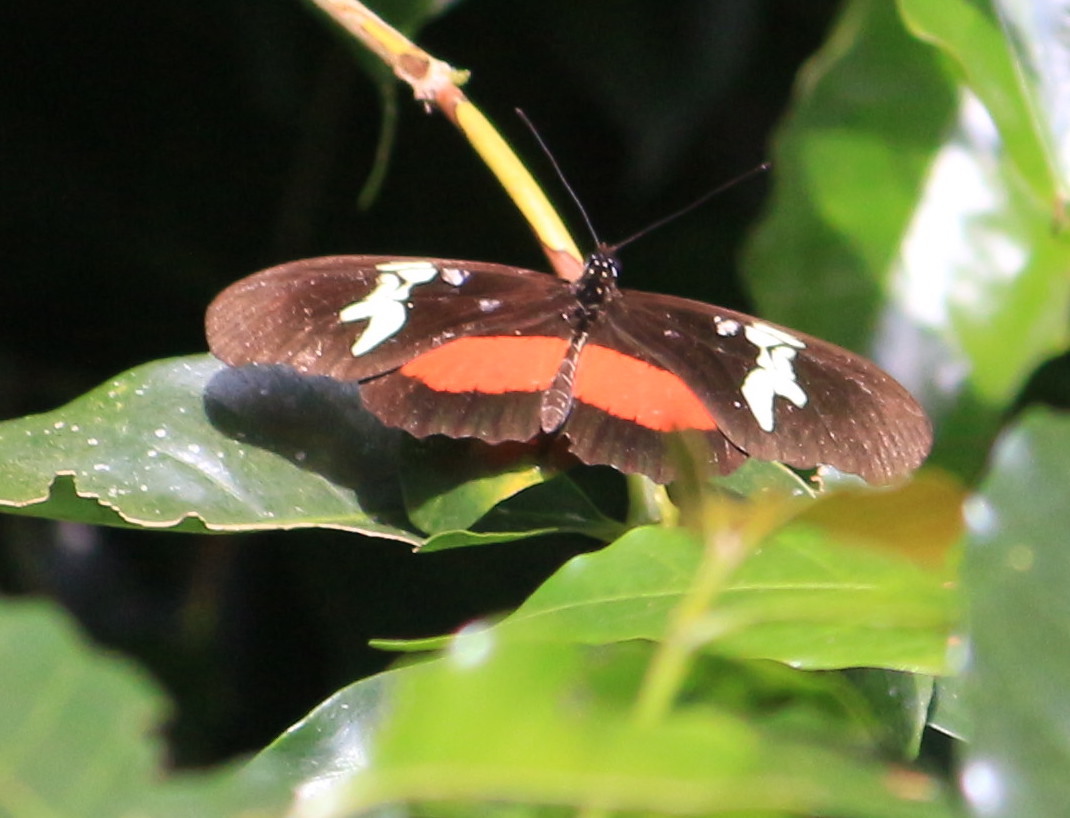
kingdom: Animalia
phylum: Arthropoda
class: Insecta
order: Lepidoptera
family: Nymphalidae
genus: Heliconius
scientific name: Heliconius hortense
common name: Mexican longwing
